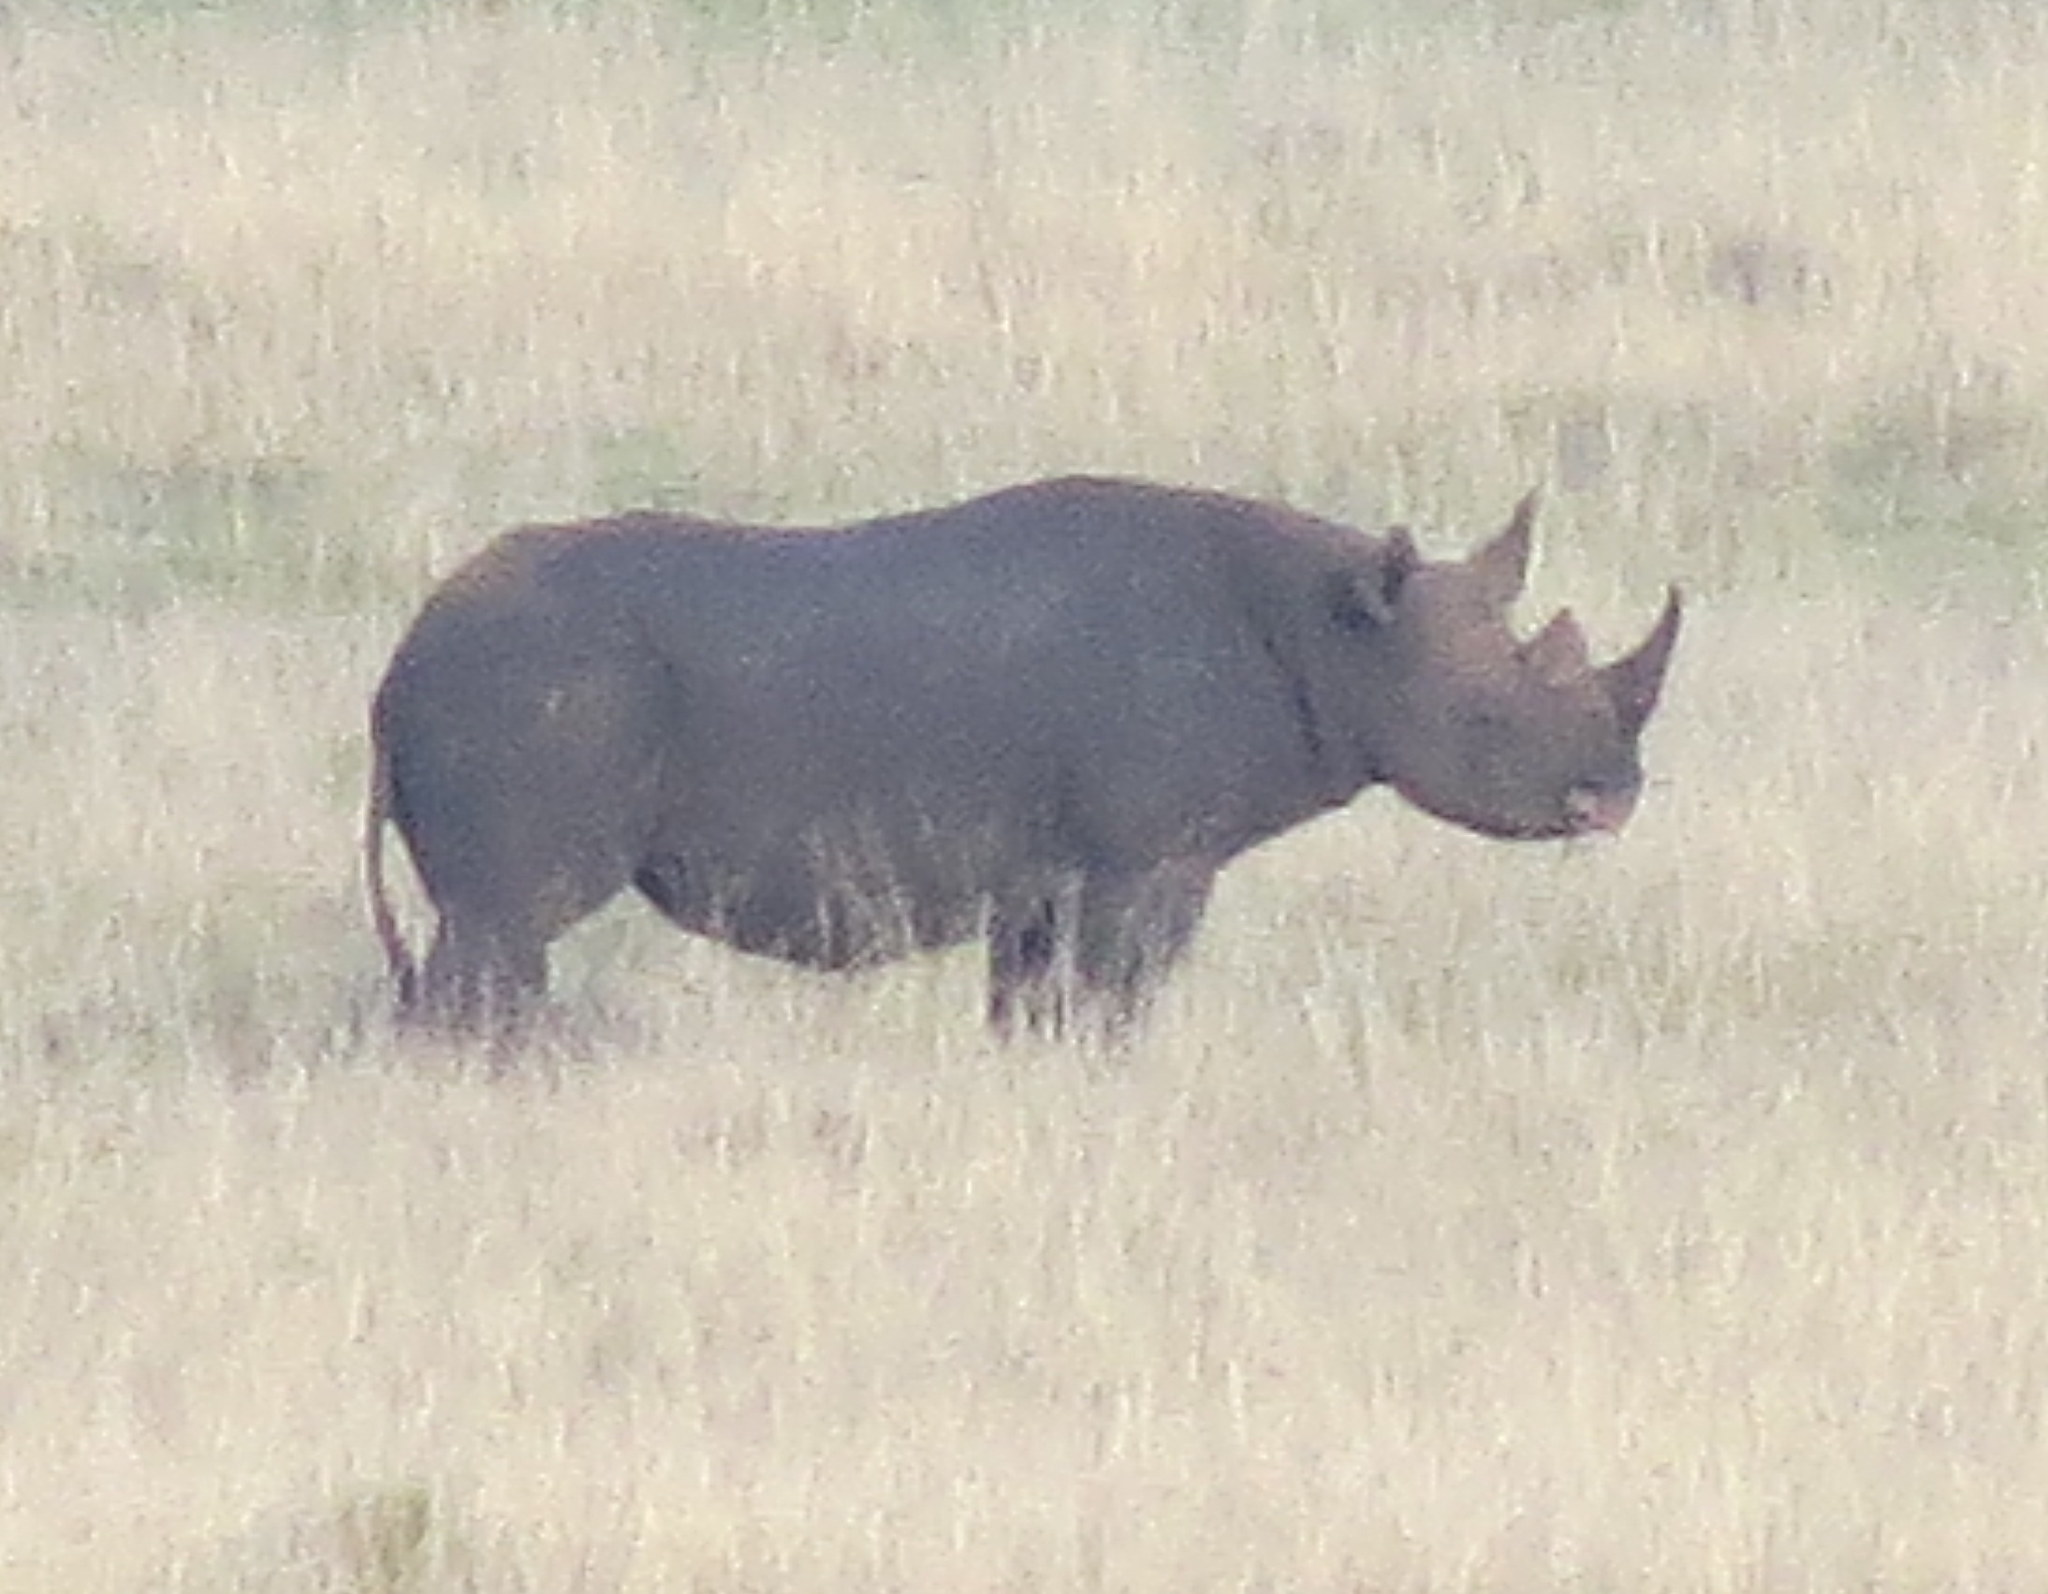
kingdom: Animalia
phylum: Chordata
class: Mammalia
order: Perissodactyla
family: Rhinocerotidae
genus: Diceros
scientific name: Diceros bicornis
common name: Black rhinoceros
